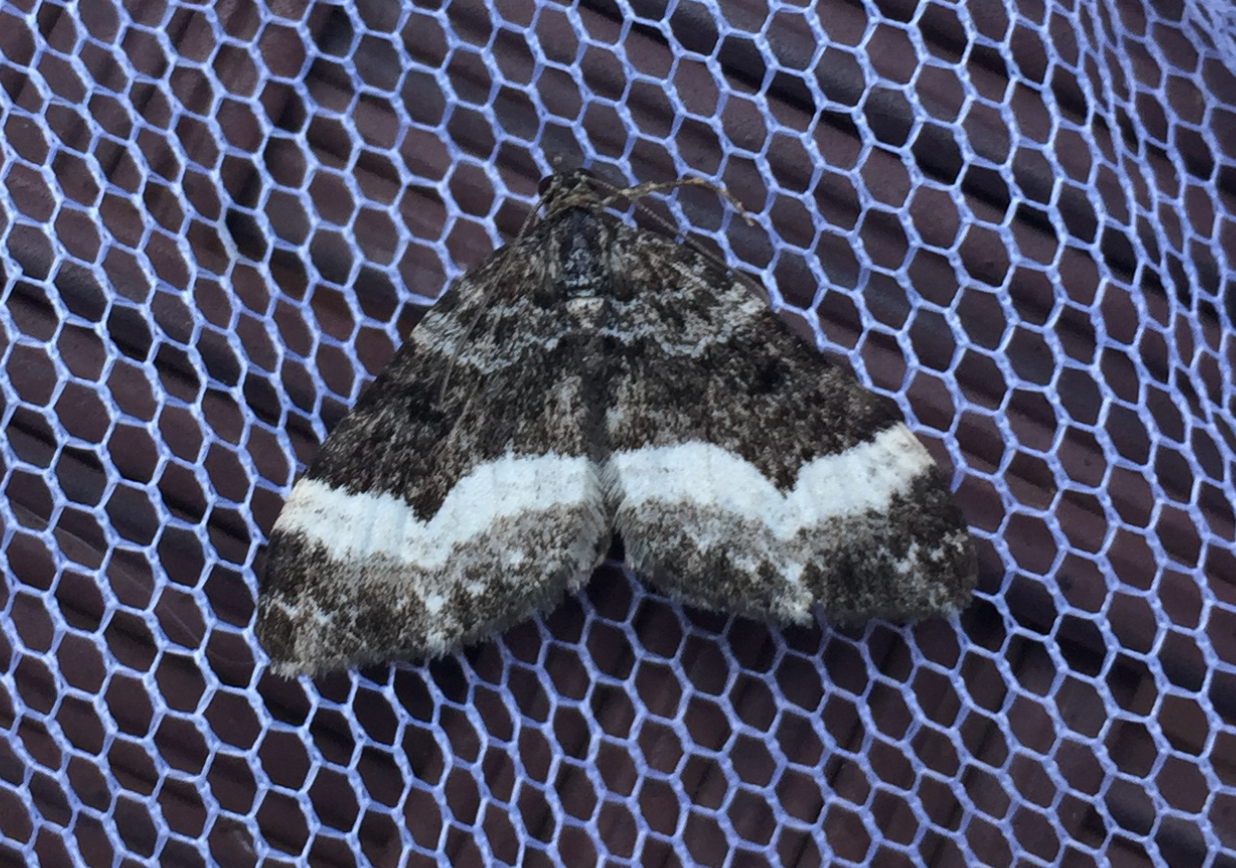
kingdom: Animalia
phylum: Arthropoda
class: Insecta
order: Lepidoptera
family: Geometridae
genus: Spargania
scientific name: Spargania luctuata
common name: White-banded carpet
